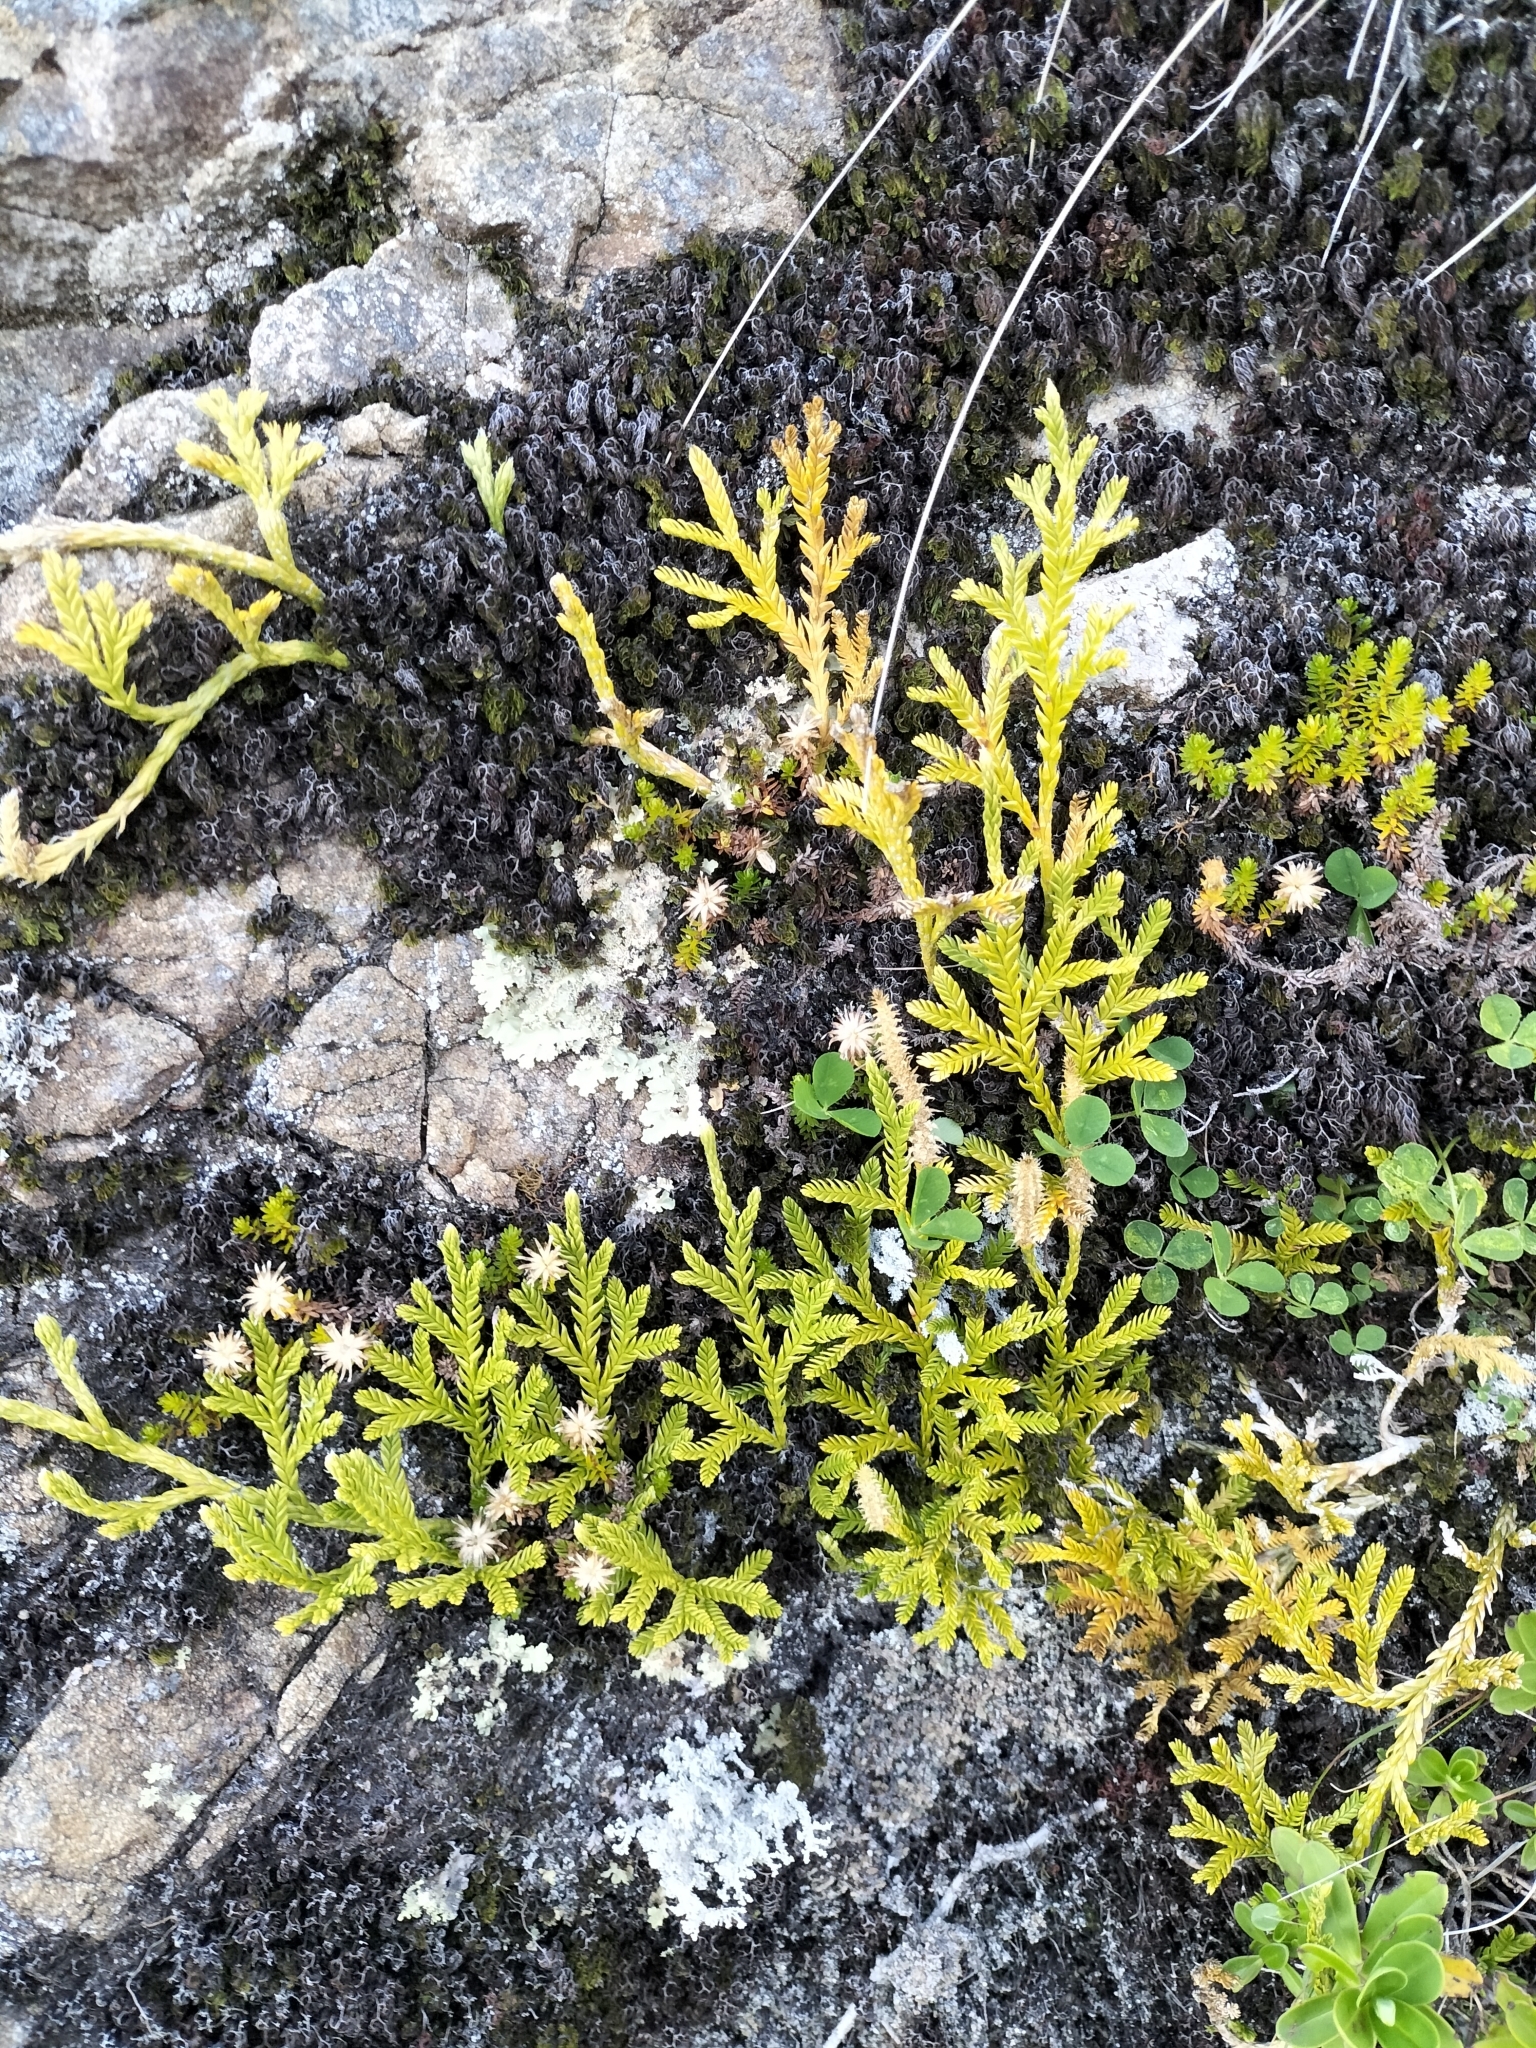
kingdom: Plantae
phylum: Tracheophyta
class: Lycopodiopsida
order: Lycopodiales
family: Lycopodiaceae
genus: Diphasium
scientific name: Diphasium scariosum
